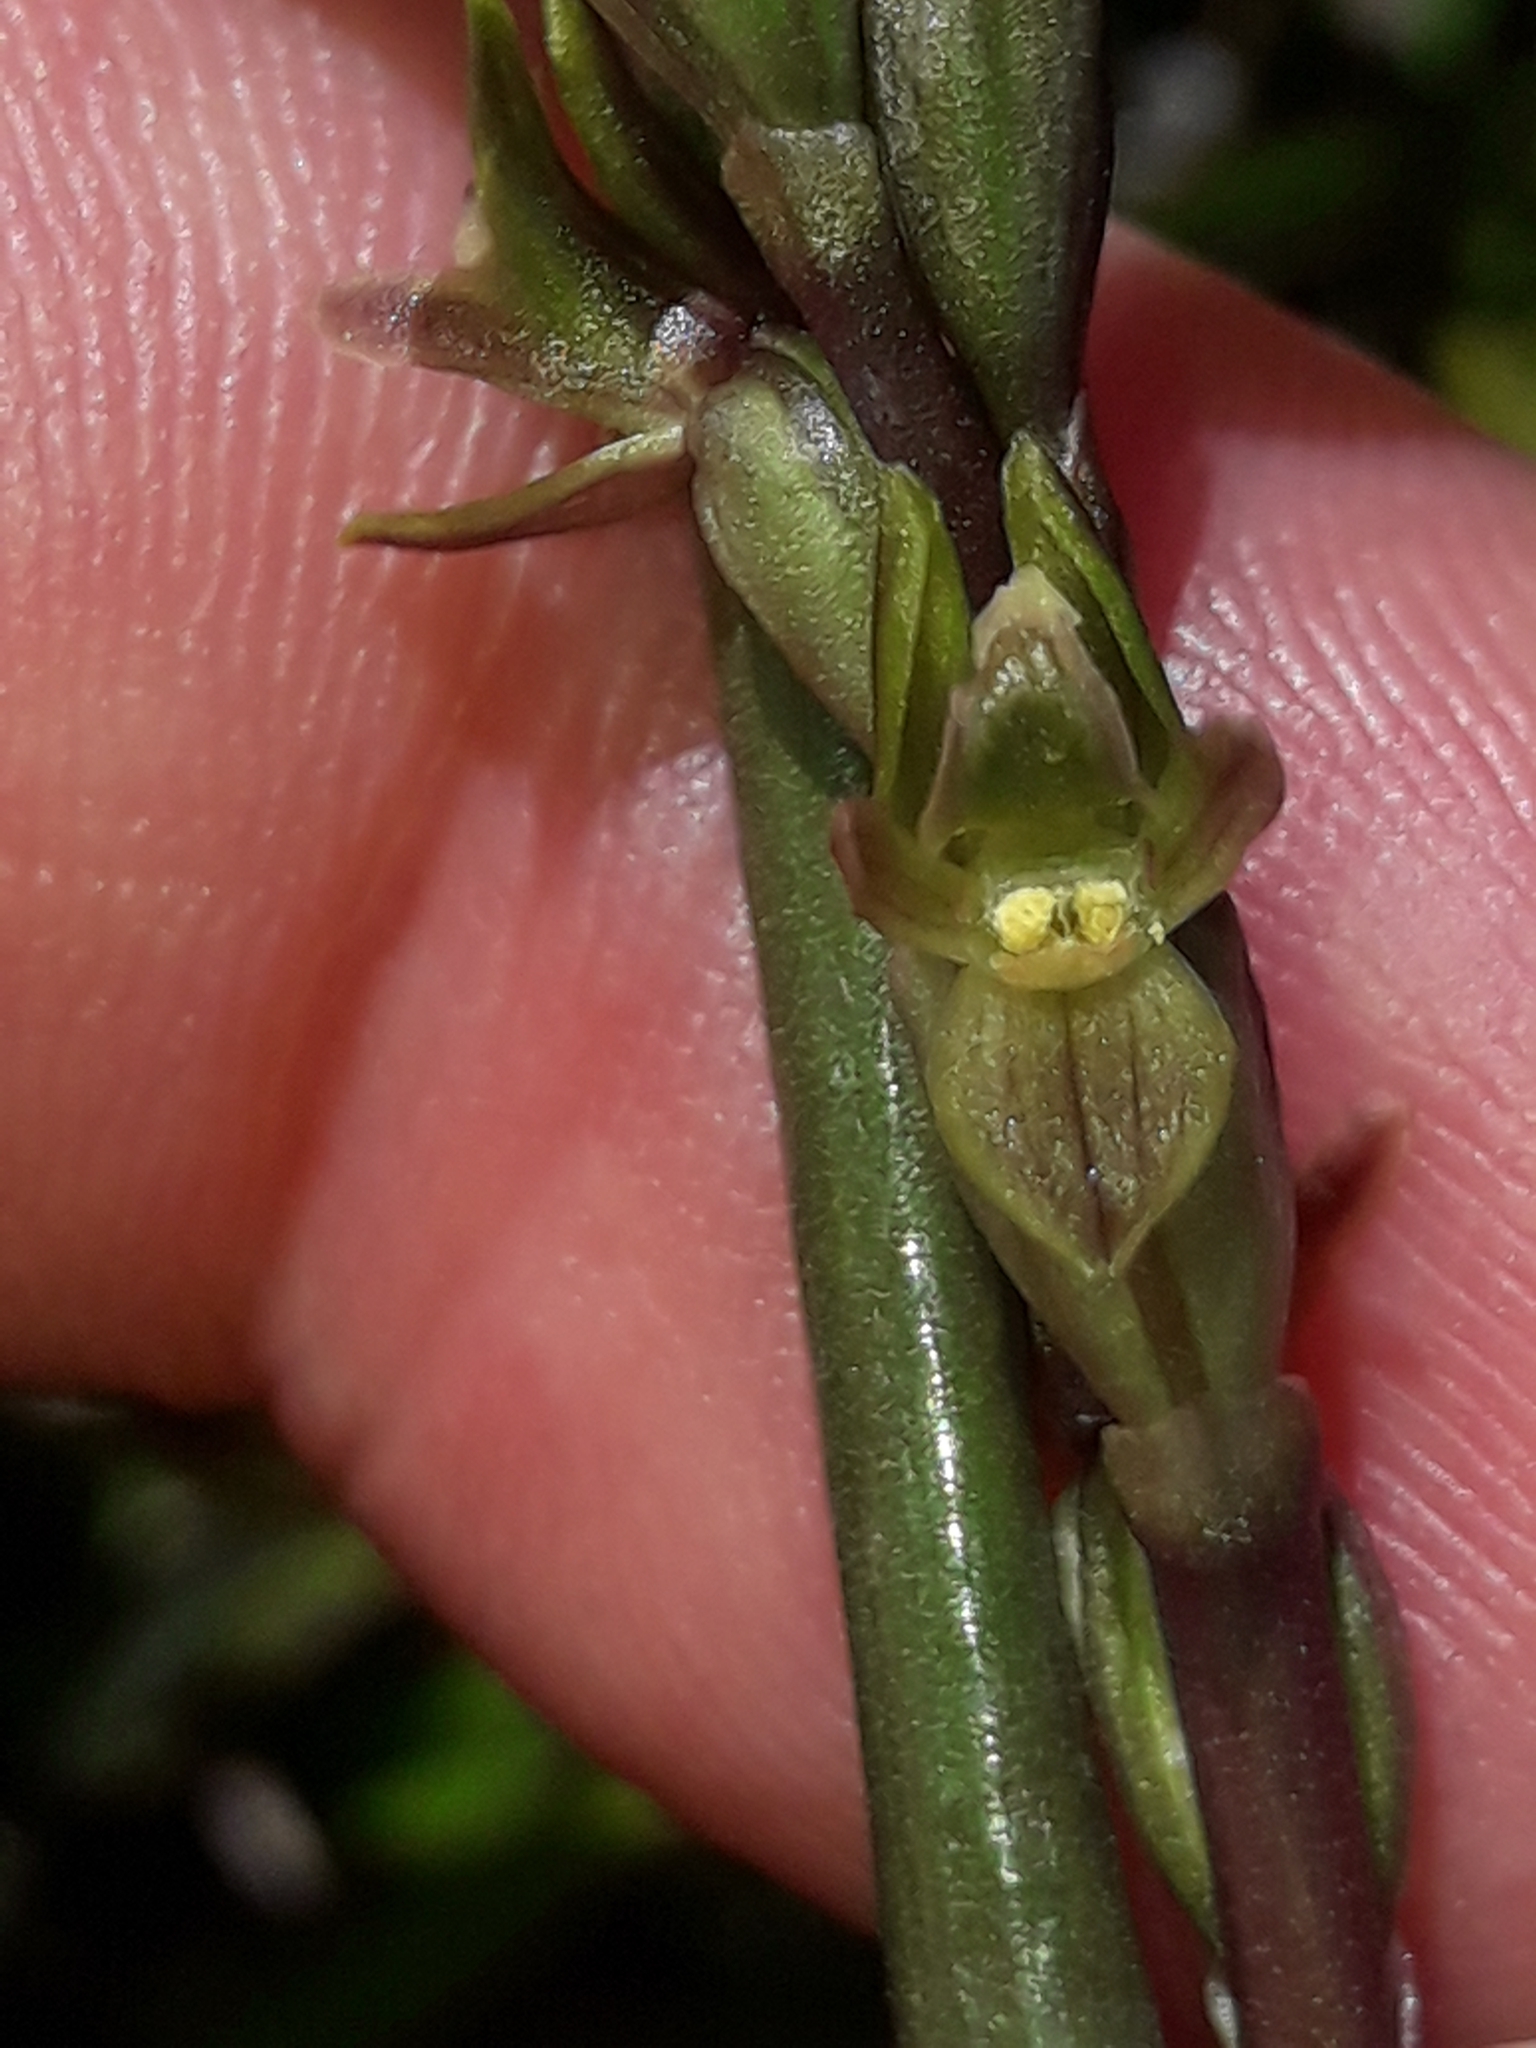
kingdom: Plantae
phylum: Tracheophyta
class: Liliopsida
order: Asparagales
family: Orchidaceae
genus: Prasophyllum
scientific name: Prasophyllum colensoi
